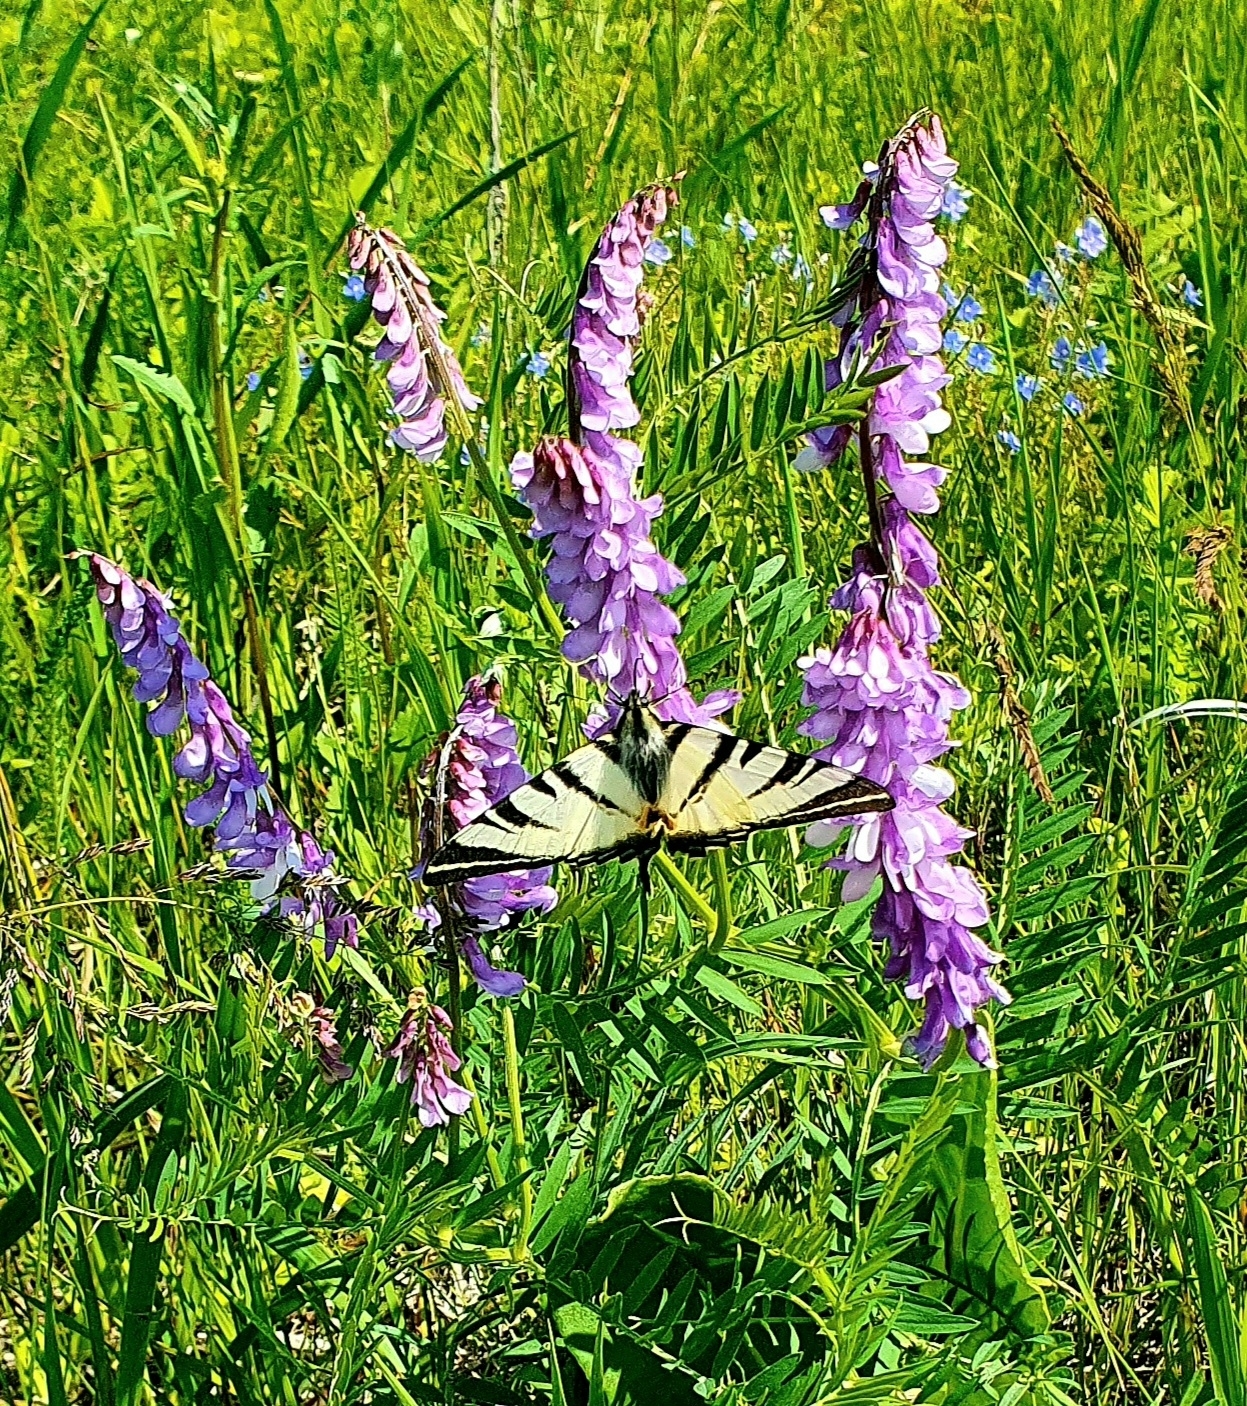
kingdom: Animalia
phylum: Arthropoda
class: Insecta
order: Lepidoptera
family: Papilionidae
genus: Iphiclides
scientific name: Iphiclides podalirius
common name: Scarce swallowtail
